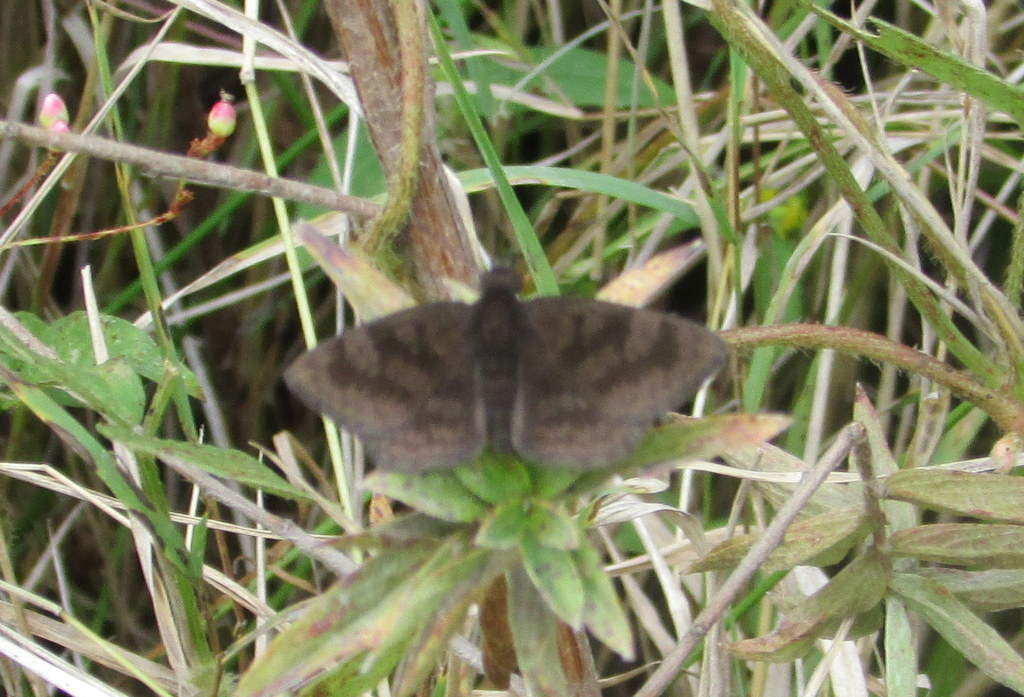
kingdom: Animalia
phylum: Arthropoda
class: Insecta
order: Lepidoptera
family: Hesperiidae
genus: Viola
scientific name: Viola minor
